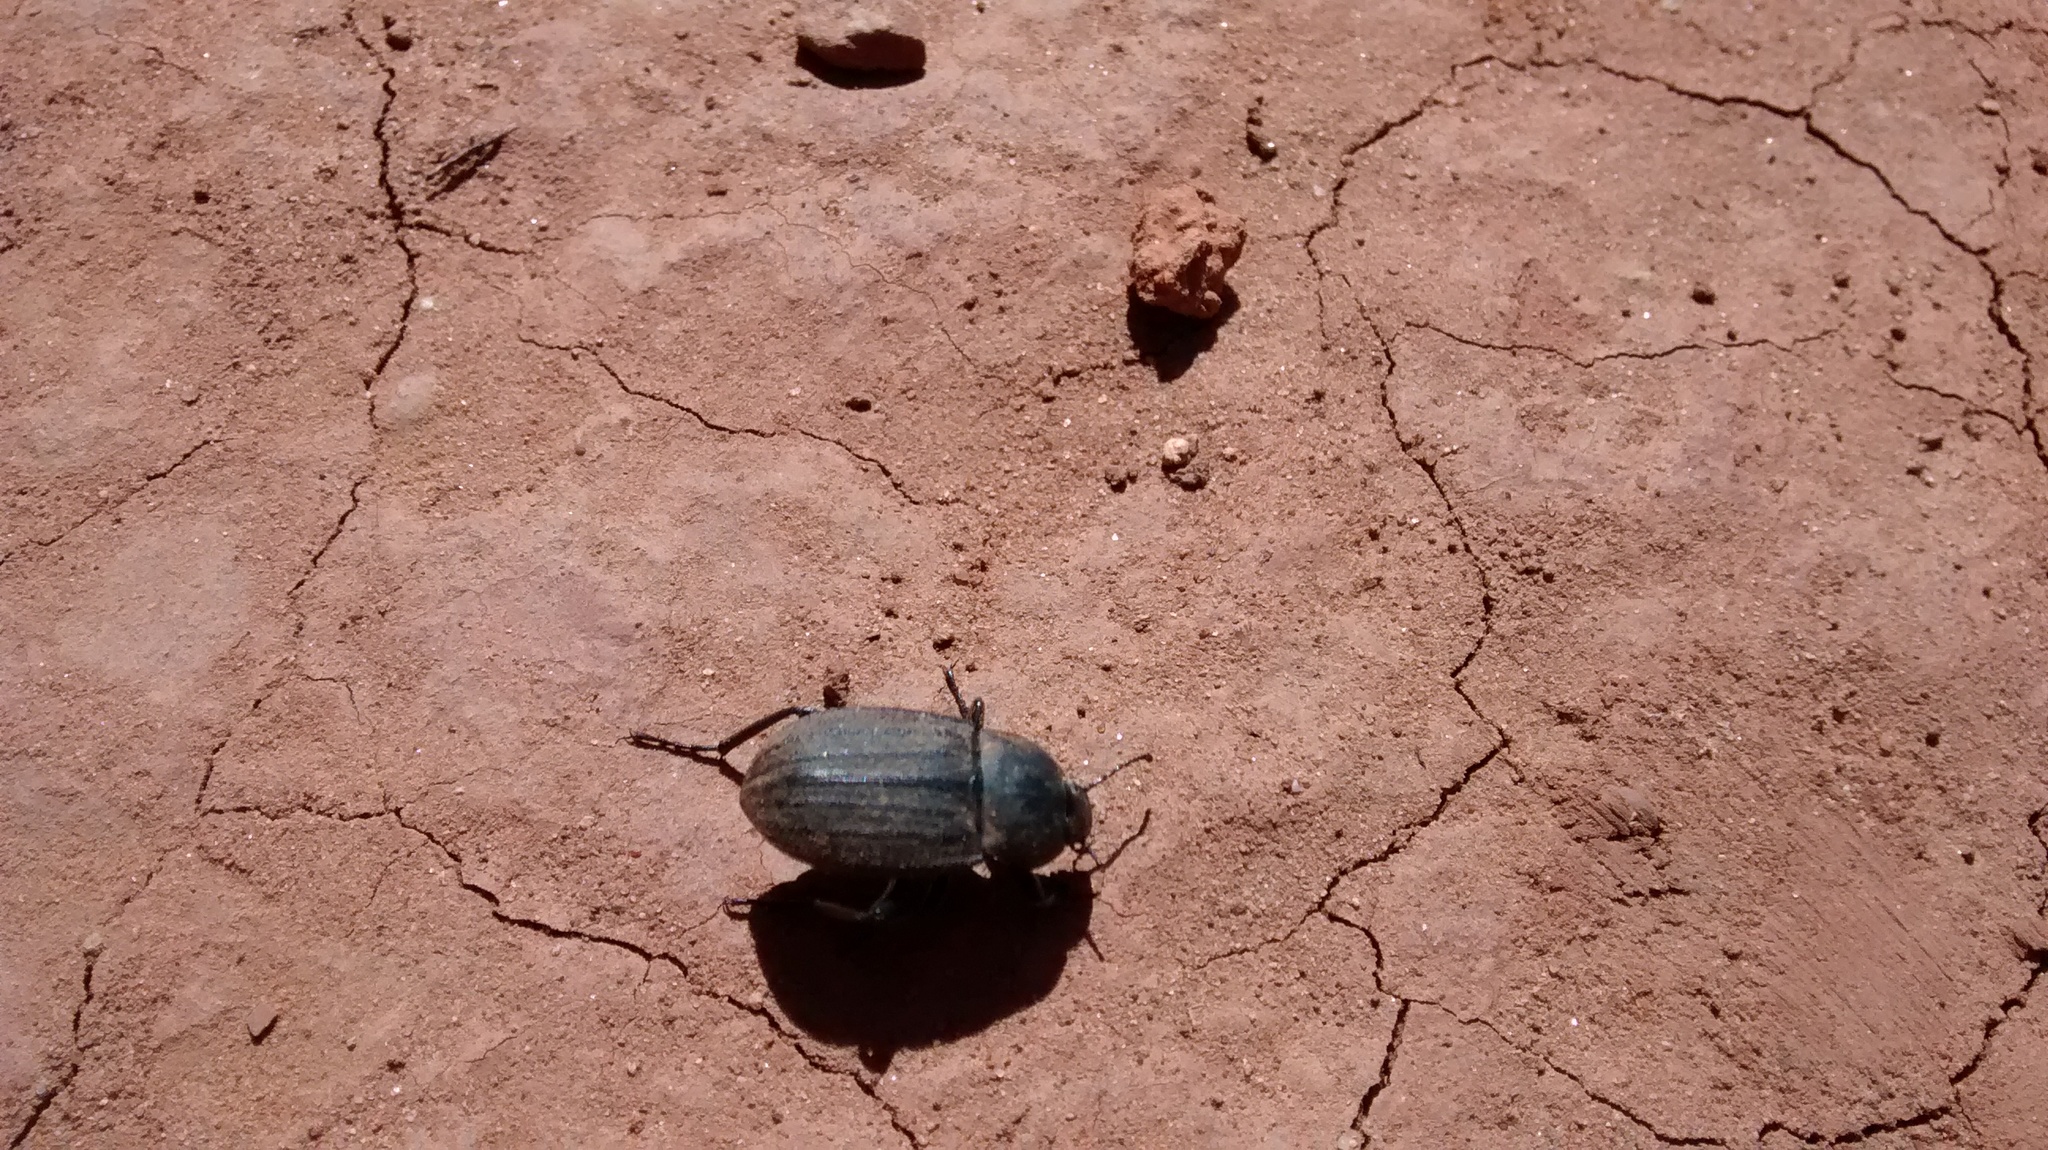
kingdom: Animalia
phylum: Arthropoda
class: Insecta
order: Coleoptera
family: Tenebrionidae
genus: Eleodes
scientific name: Eleodes tricostata
